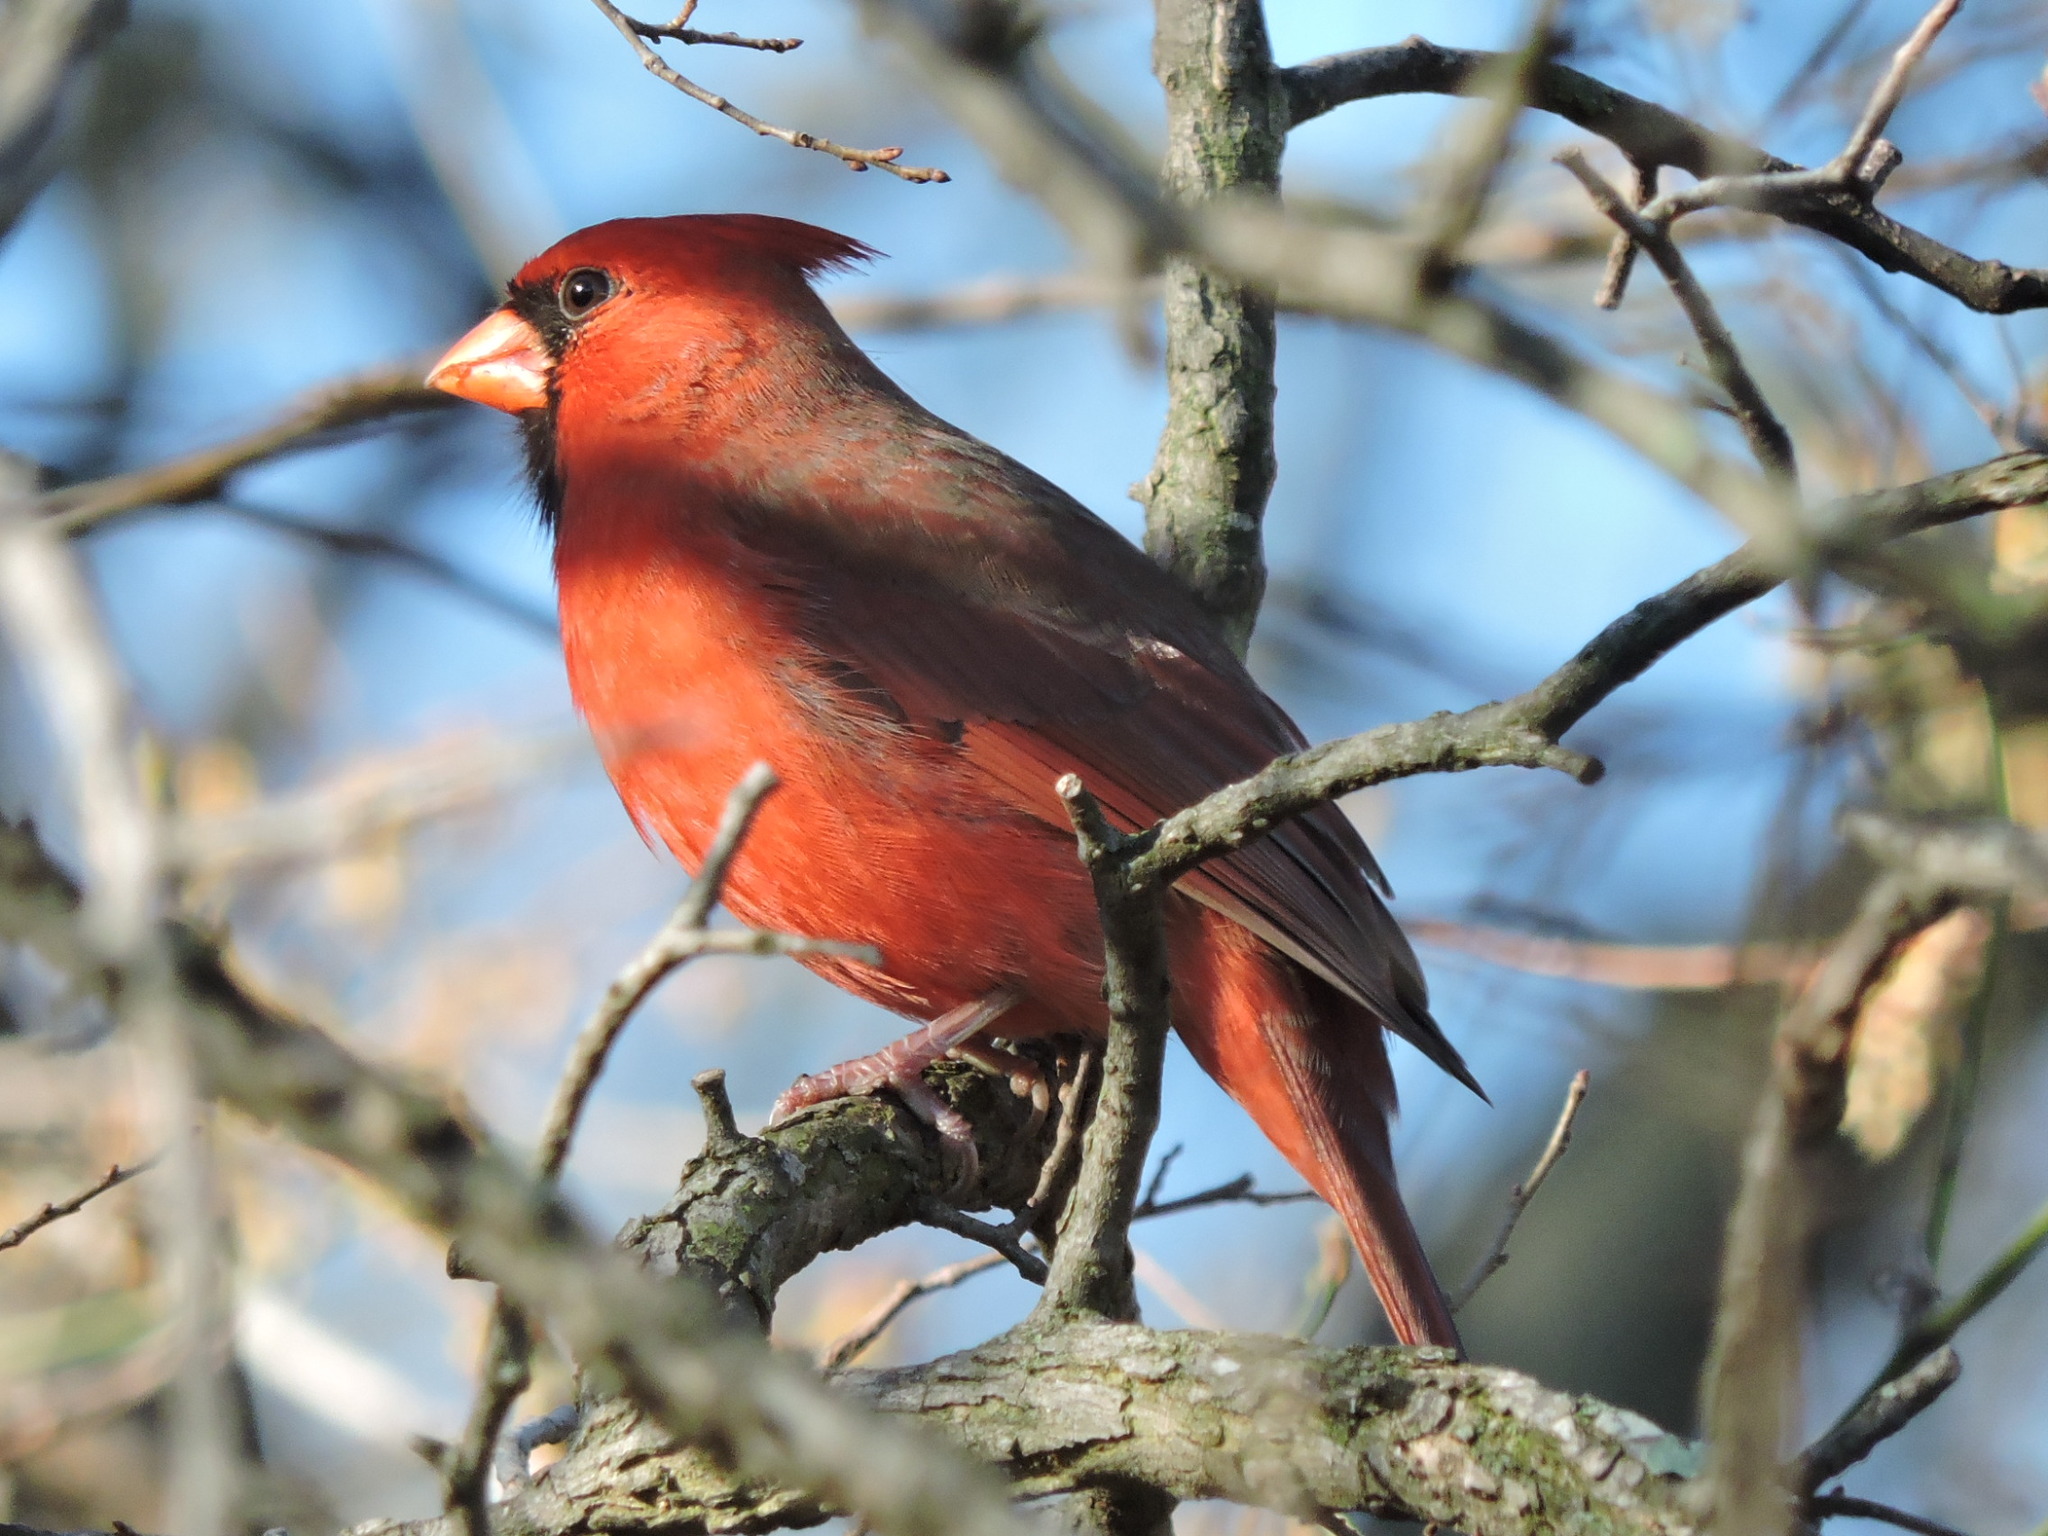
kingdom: Animalia
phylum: Chordata
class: Aves
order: Passeriformes
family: Cardinalidae
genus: Cardinalis
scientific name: Cardinalis cardinalis
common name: Northern cardinal
